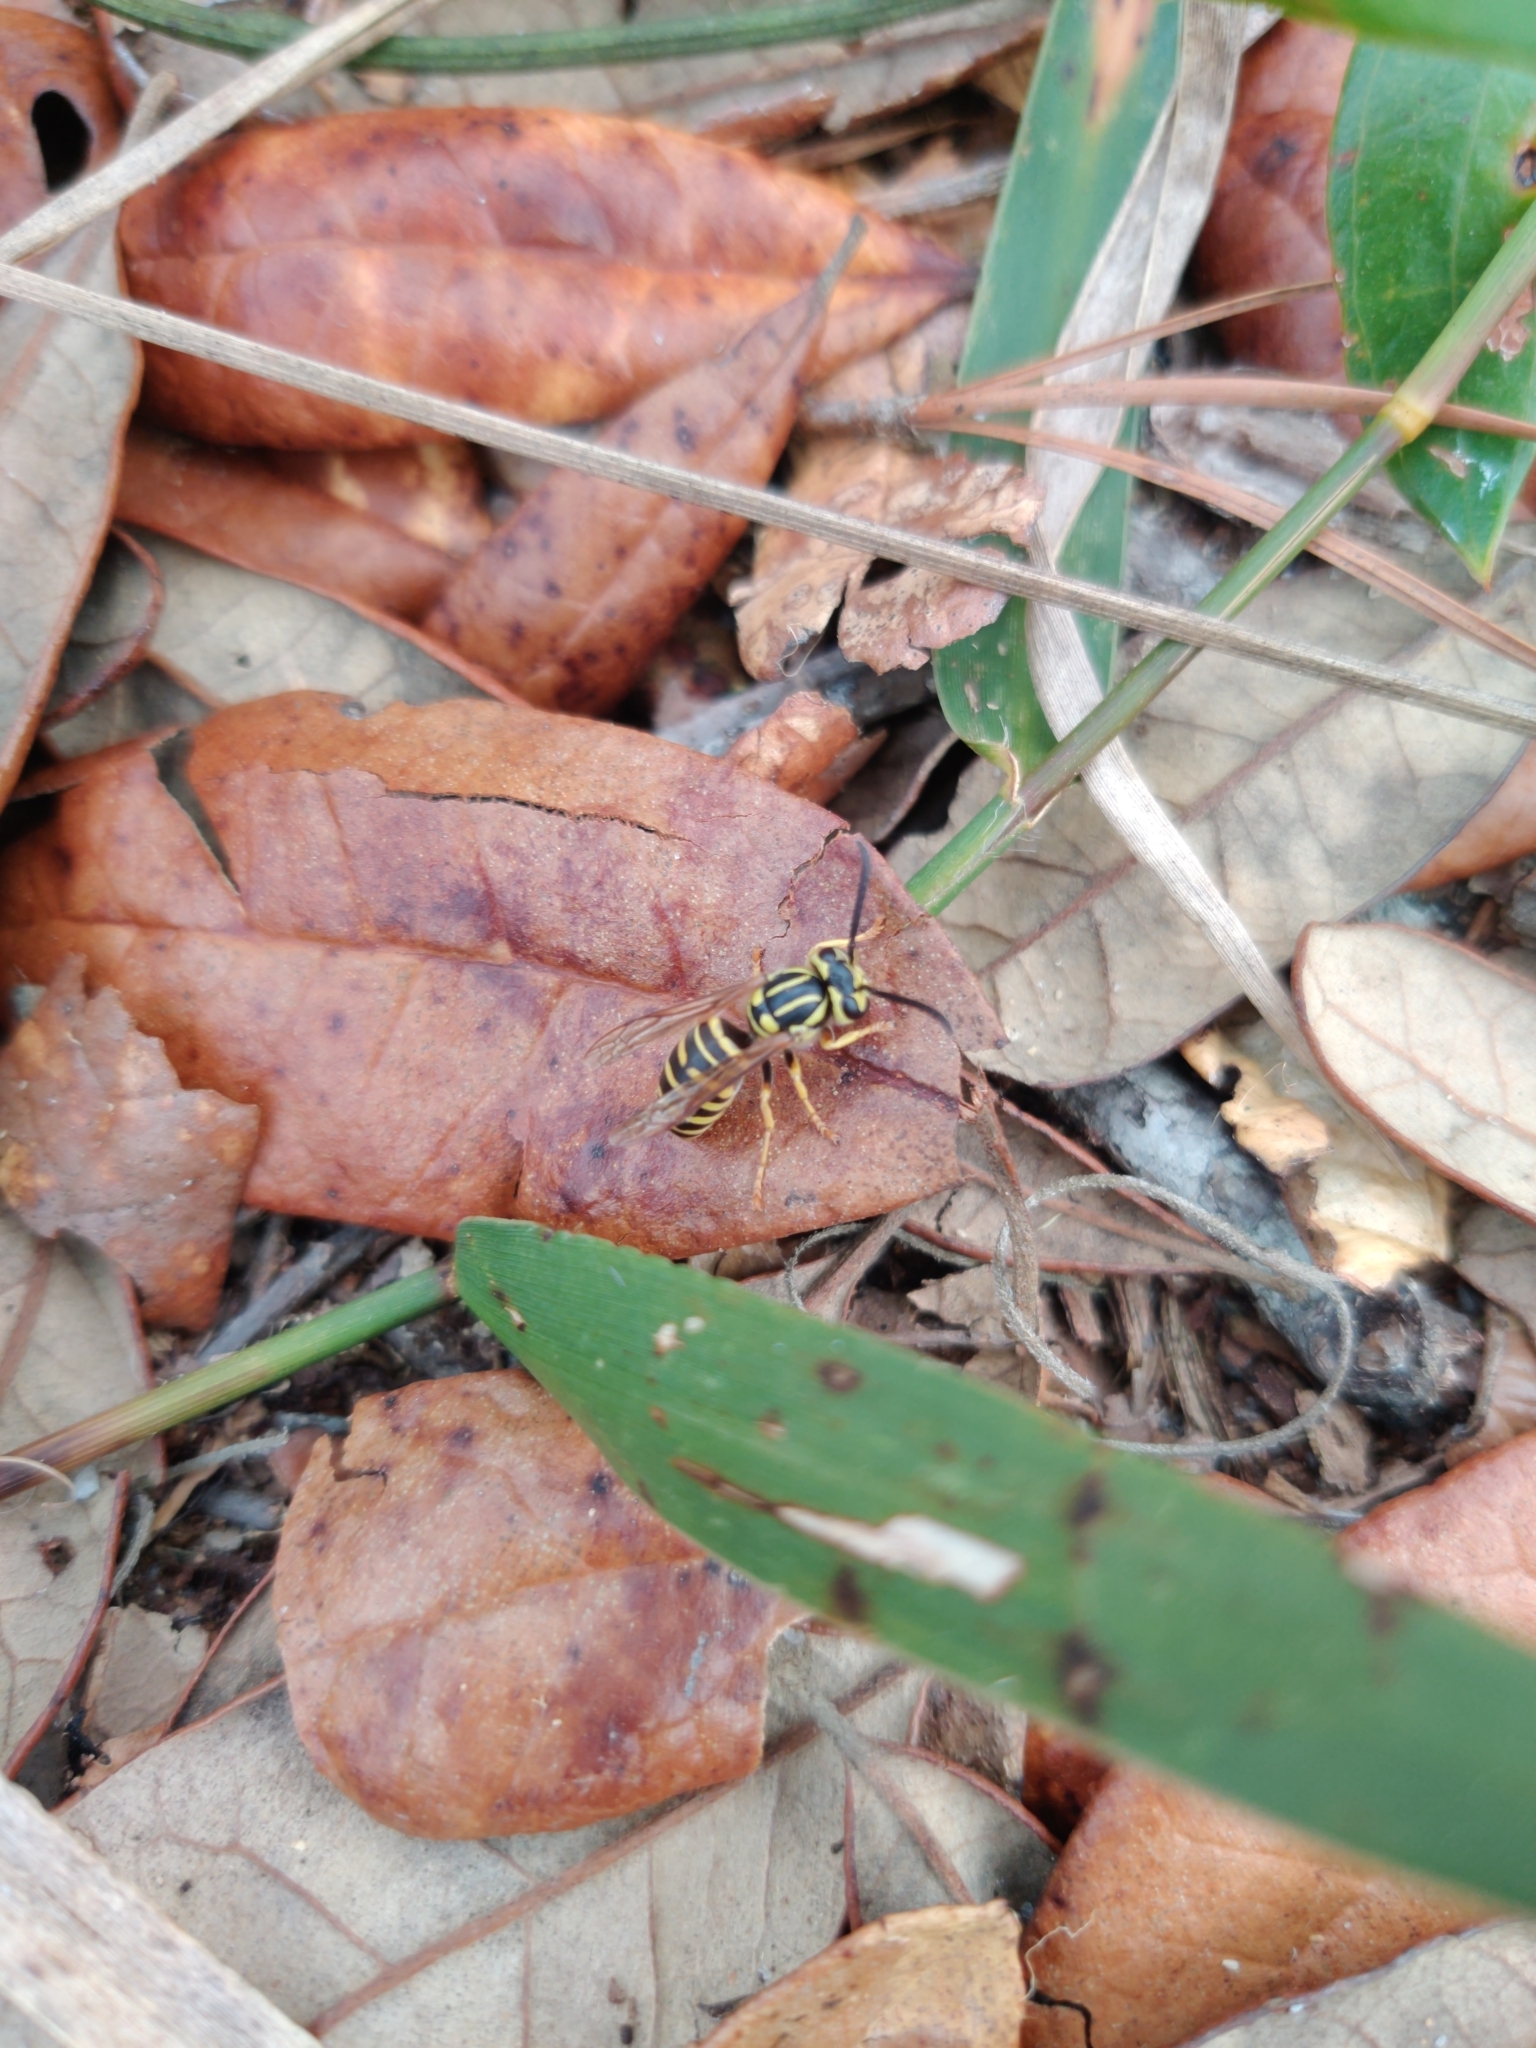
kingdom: Animalia
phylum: Arthropoda
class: Insecta
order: Hymenoptera
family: Vespidae
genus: Vespula
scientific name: Vespula squamosa
